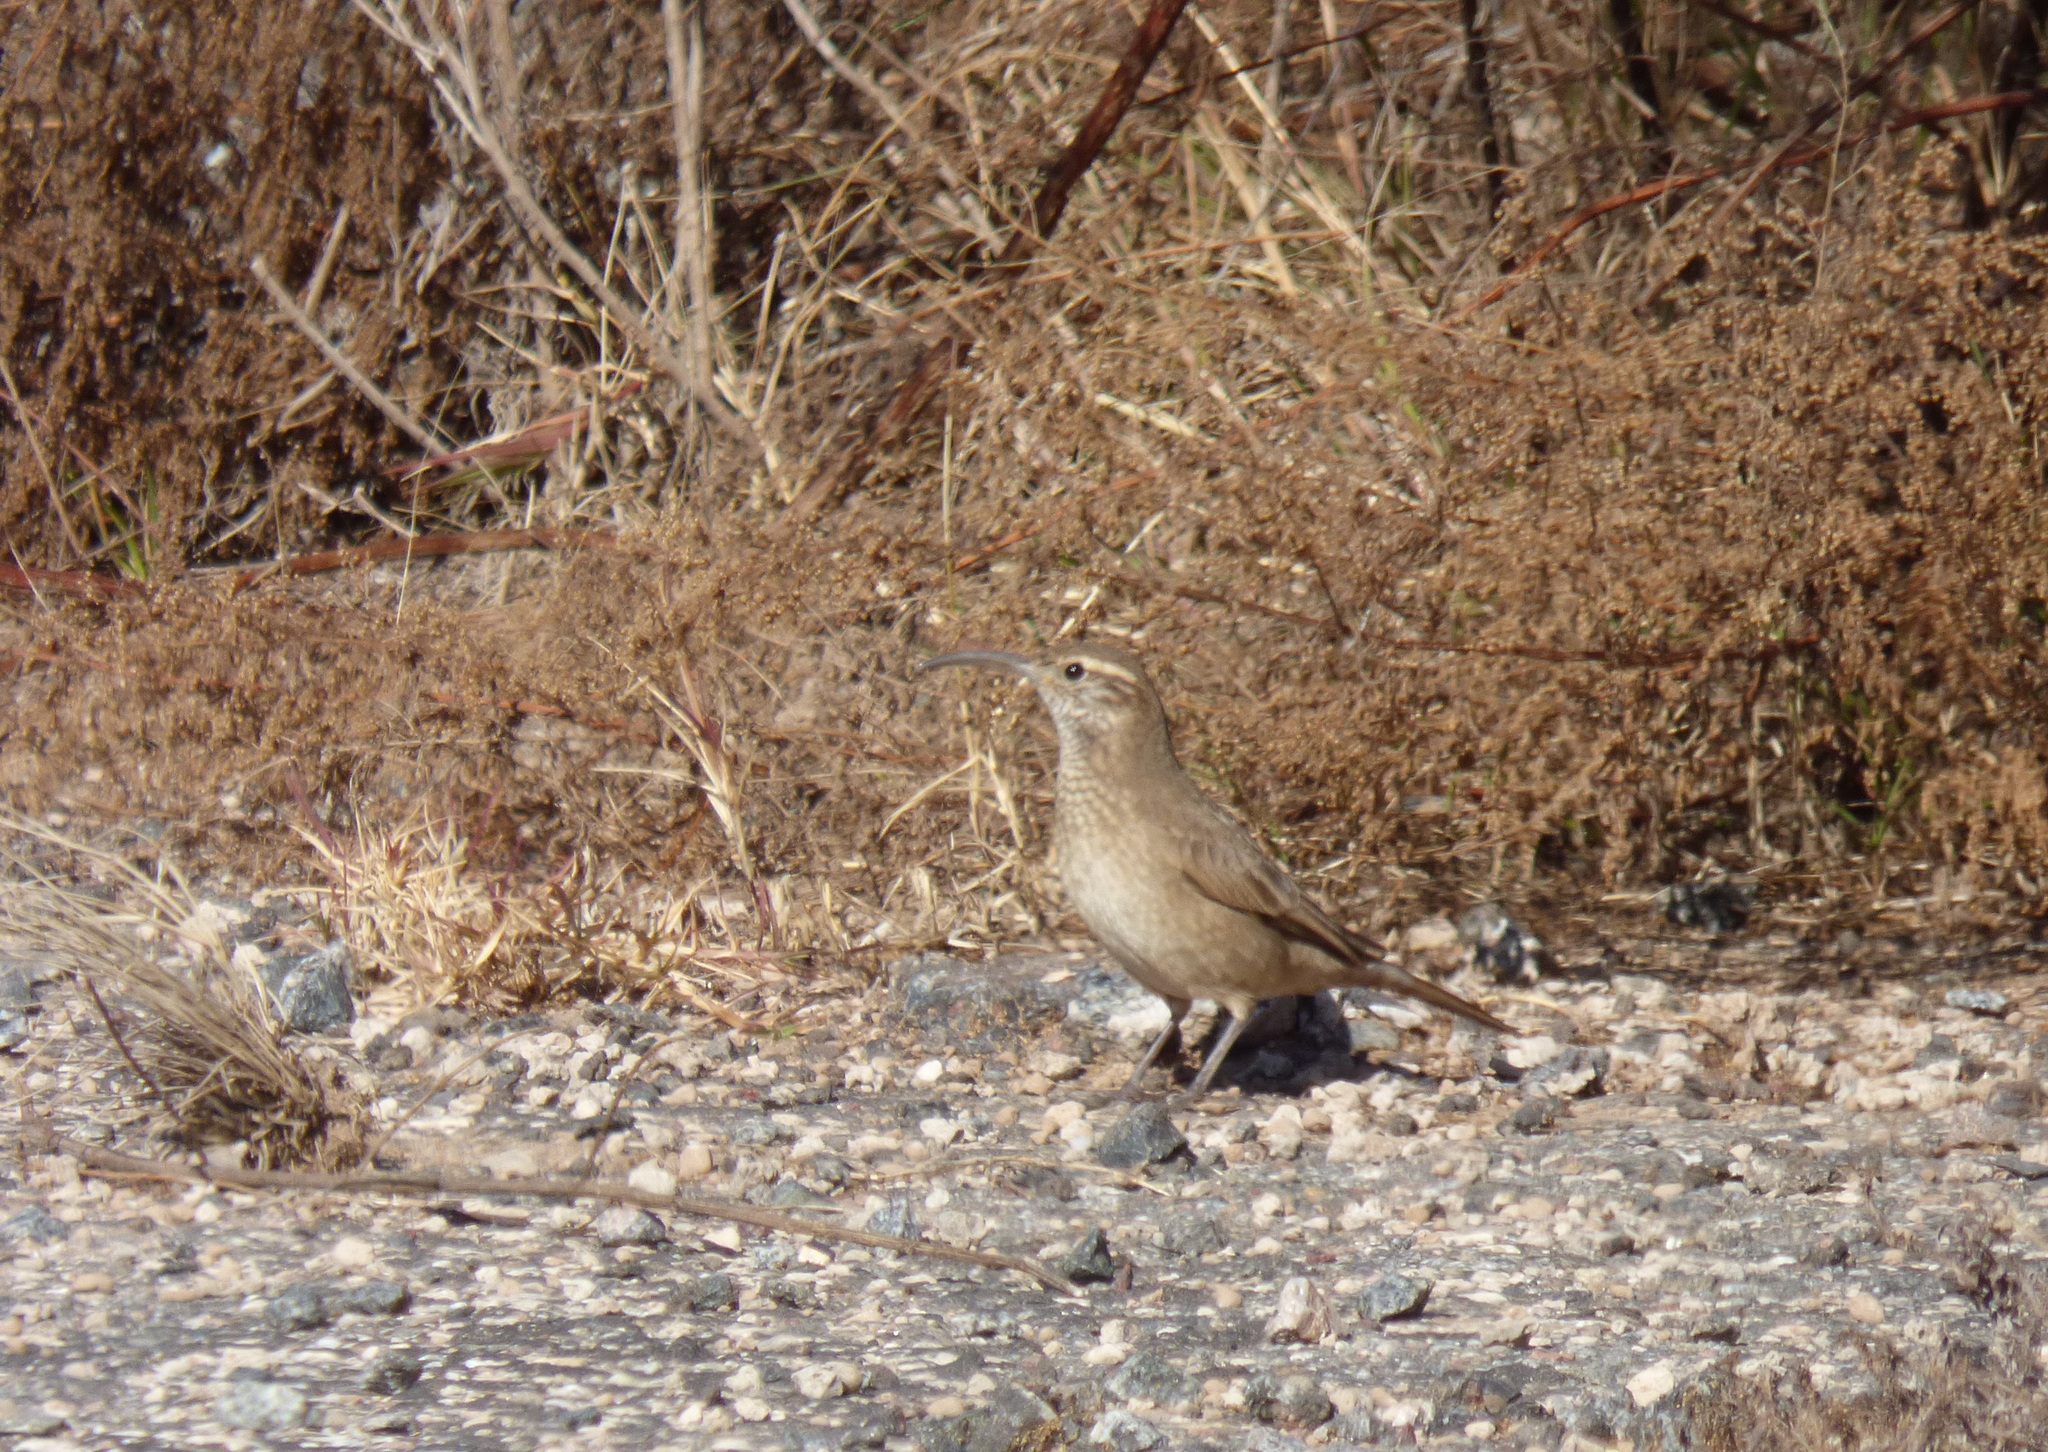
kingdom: Animalia
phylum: Chordata
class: Aves
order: Passeriformes
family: Furnariidae
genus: Upucerthia
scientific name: Upucerthia dumetaria
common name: Scale-throated earthcreeper
